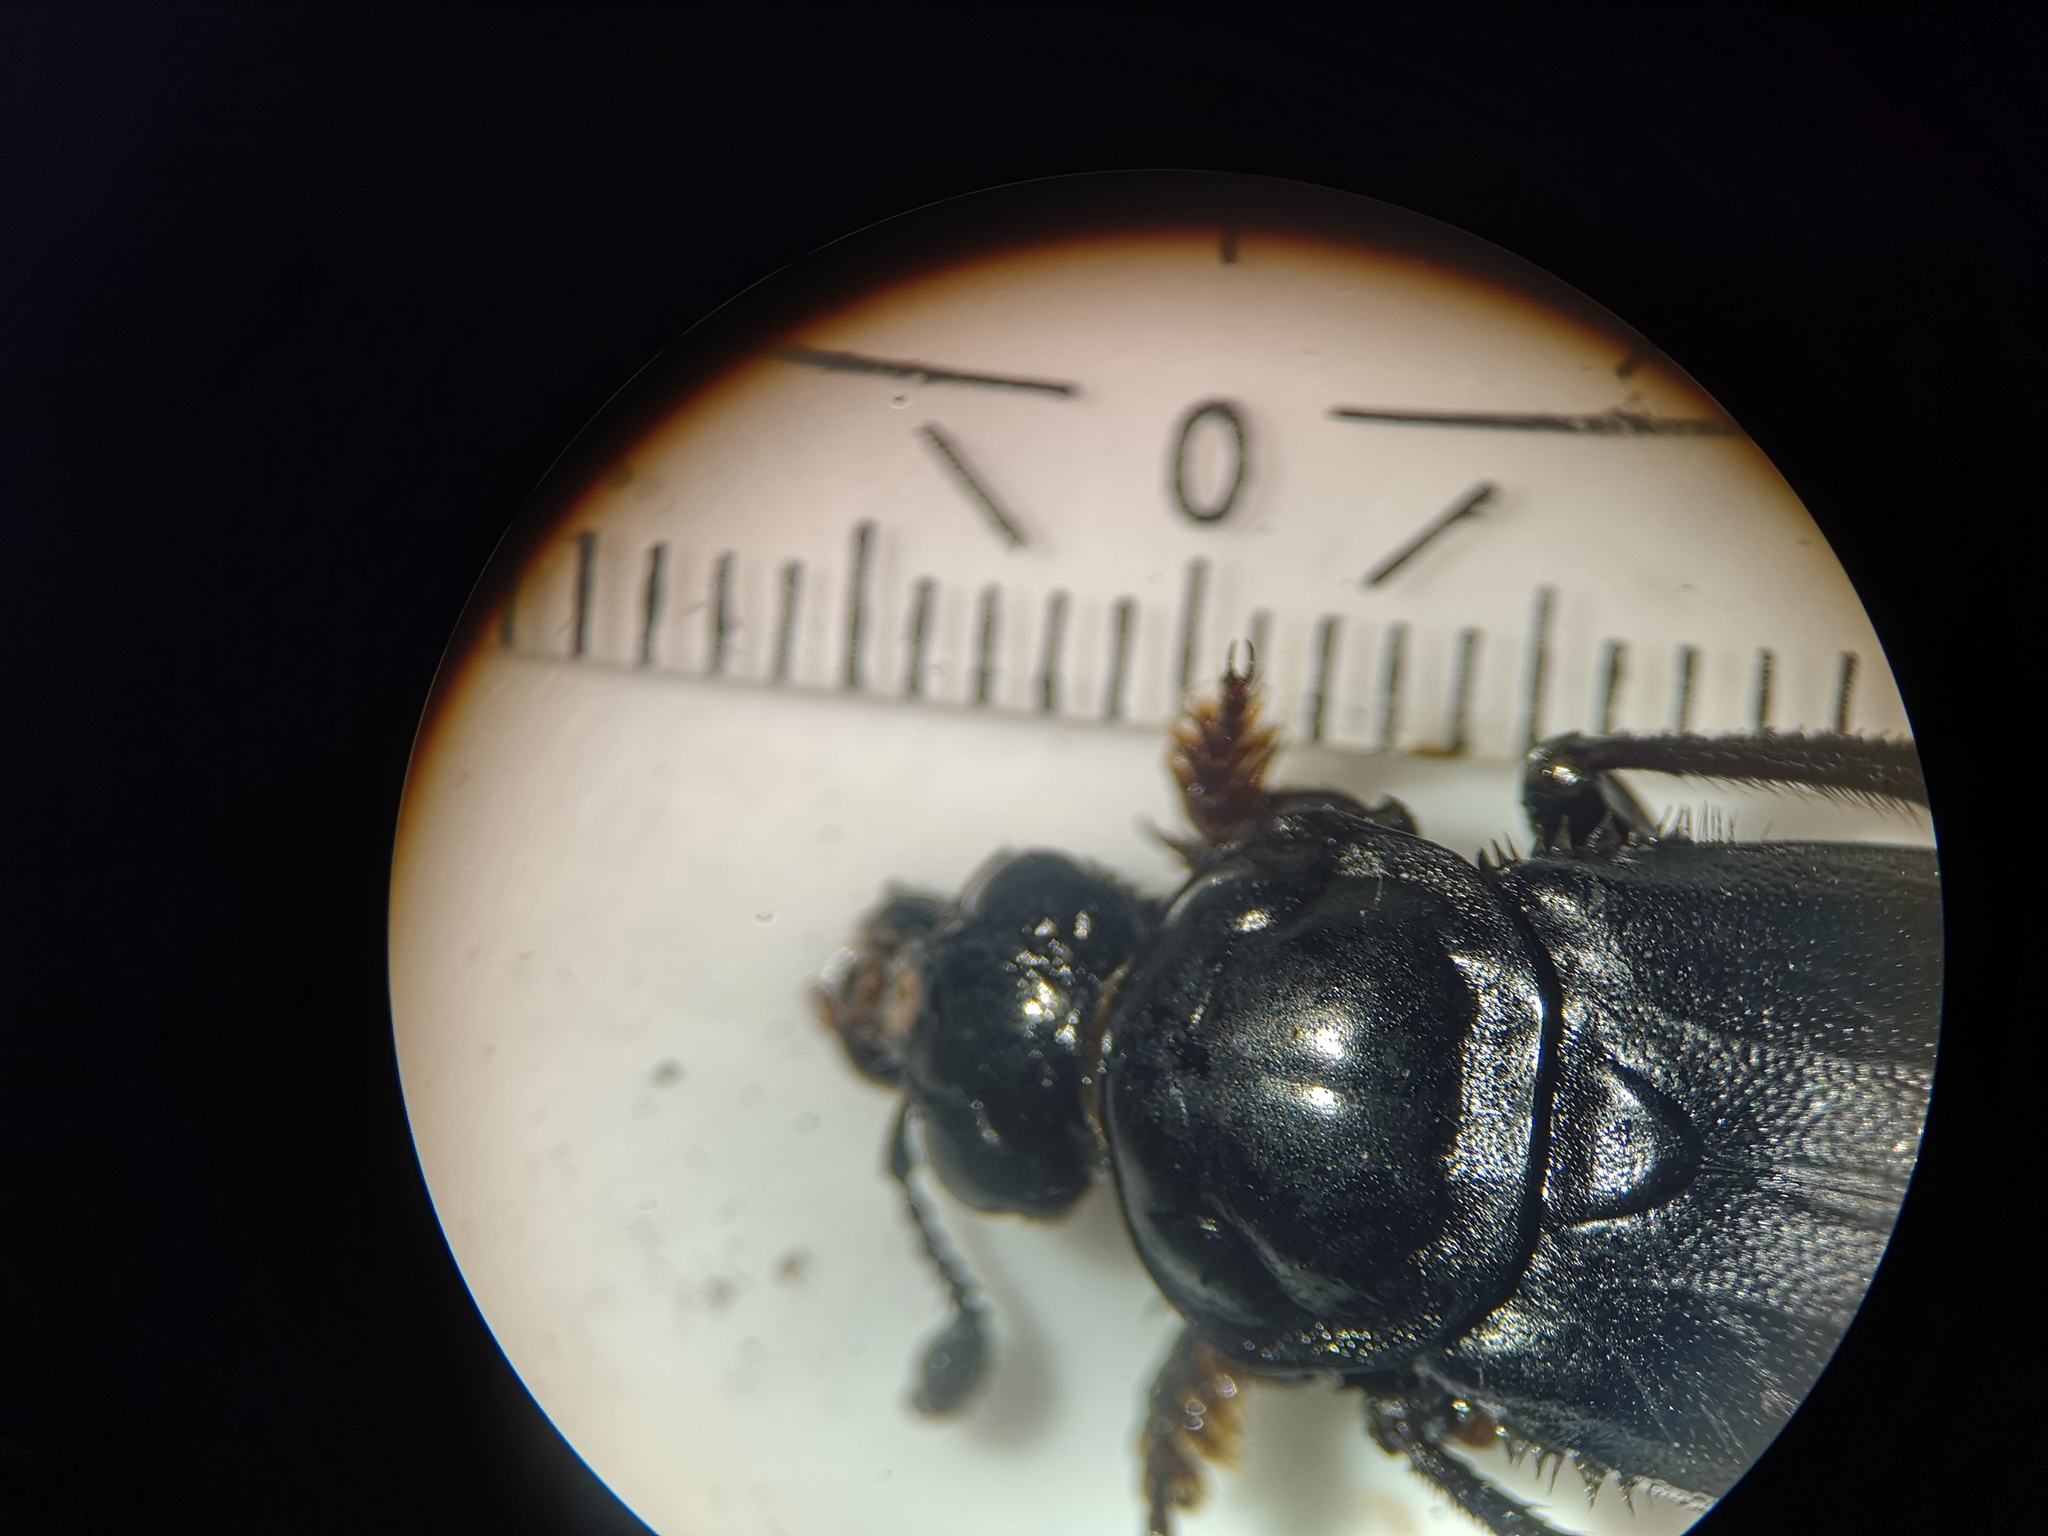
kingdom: Animalia
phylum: Arthropoda
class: Insecta
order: Coleoptera
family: Staphylinidae
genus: Nicrophorus
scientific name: Nicrophorus humator
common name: Black sexton beetle
